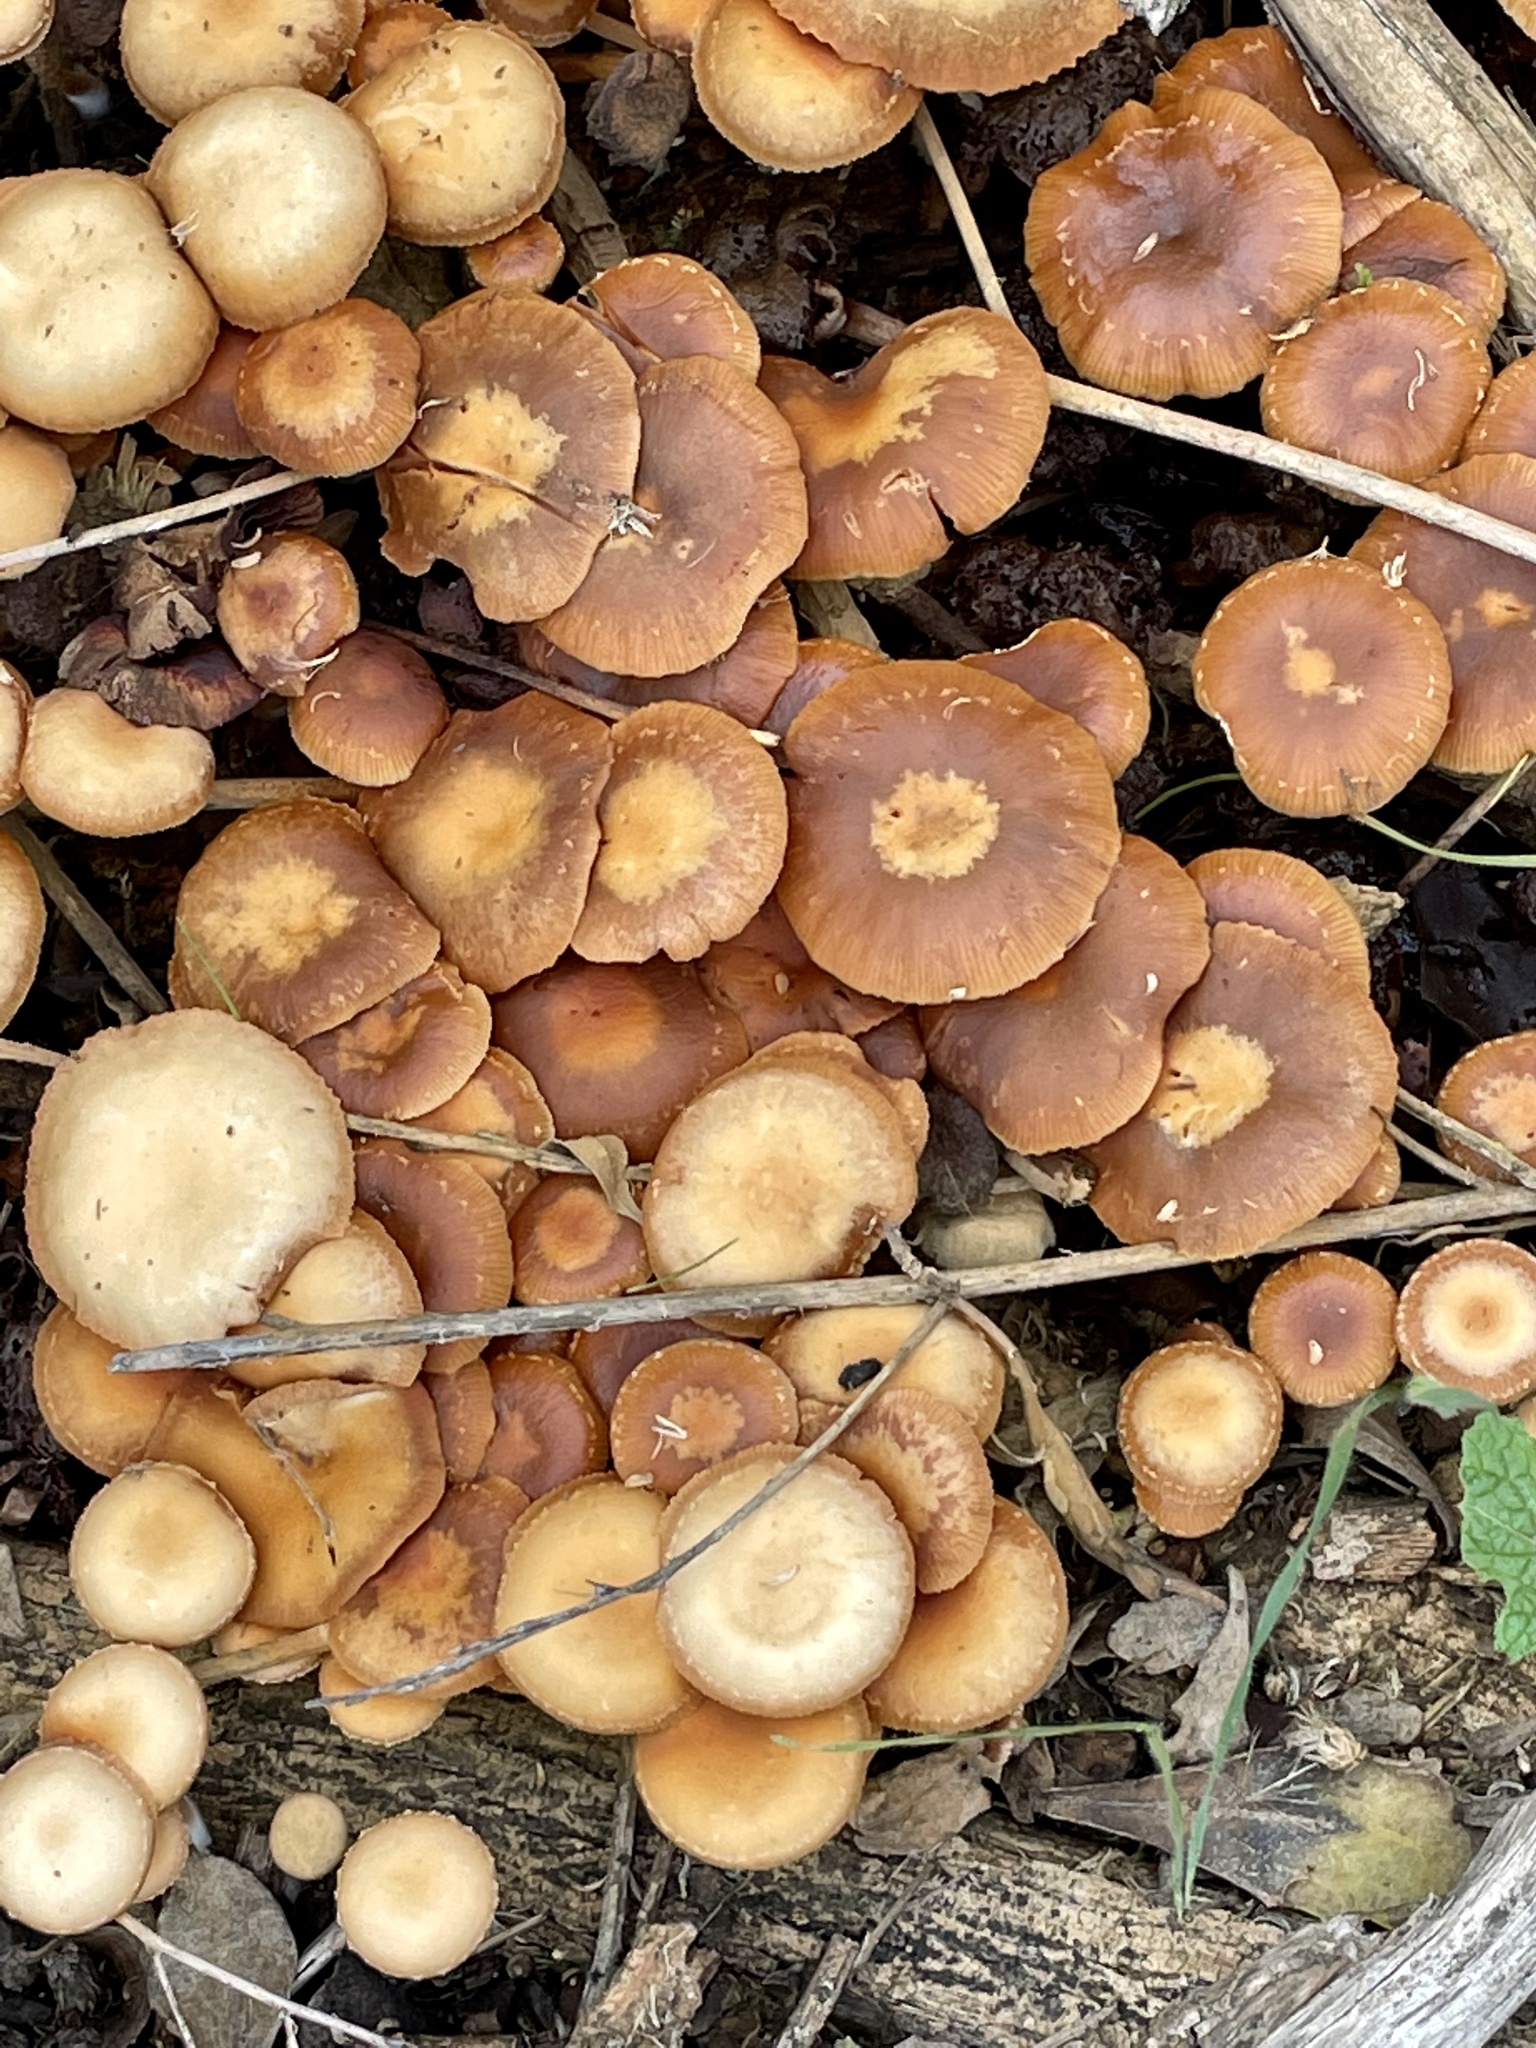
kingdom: Fungi
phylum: Basidiomycota
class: Agaricomycetes
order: Agaricales
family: Psathyrellaceae
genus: Psathyrella
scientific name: Psathyrella piluliformis
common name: Common stump brittlestem
